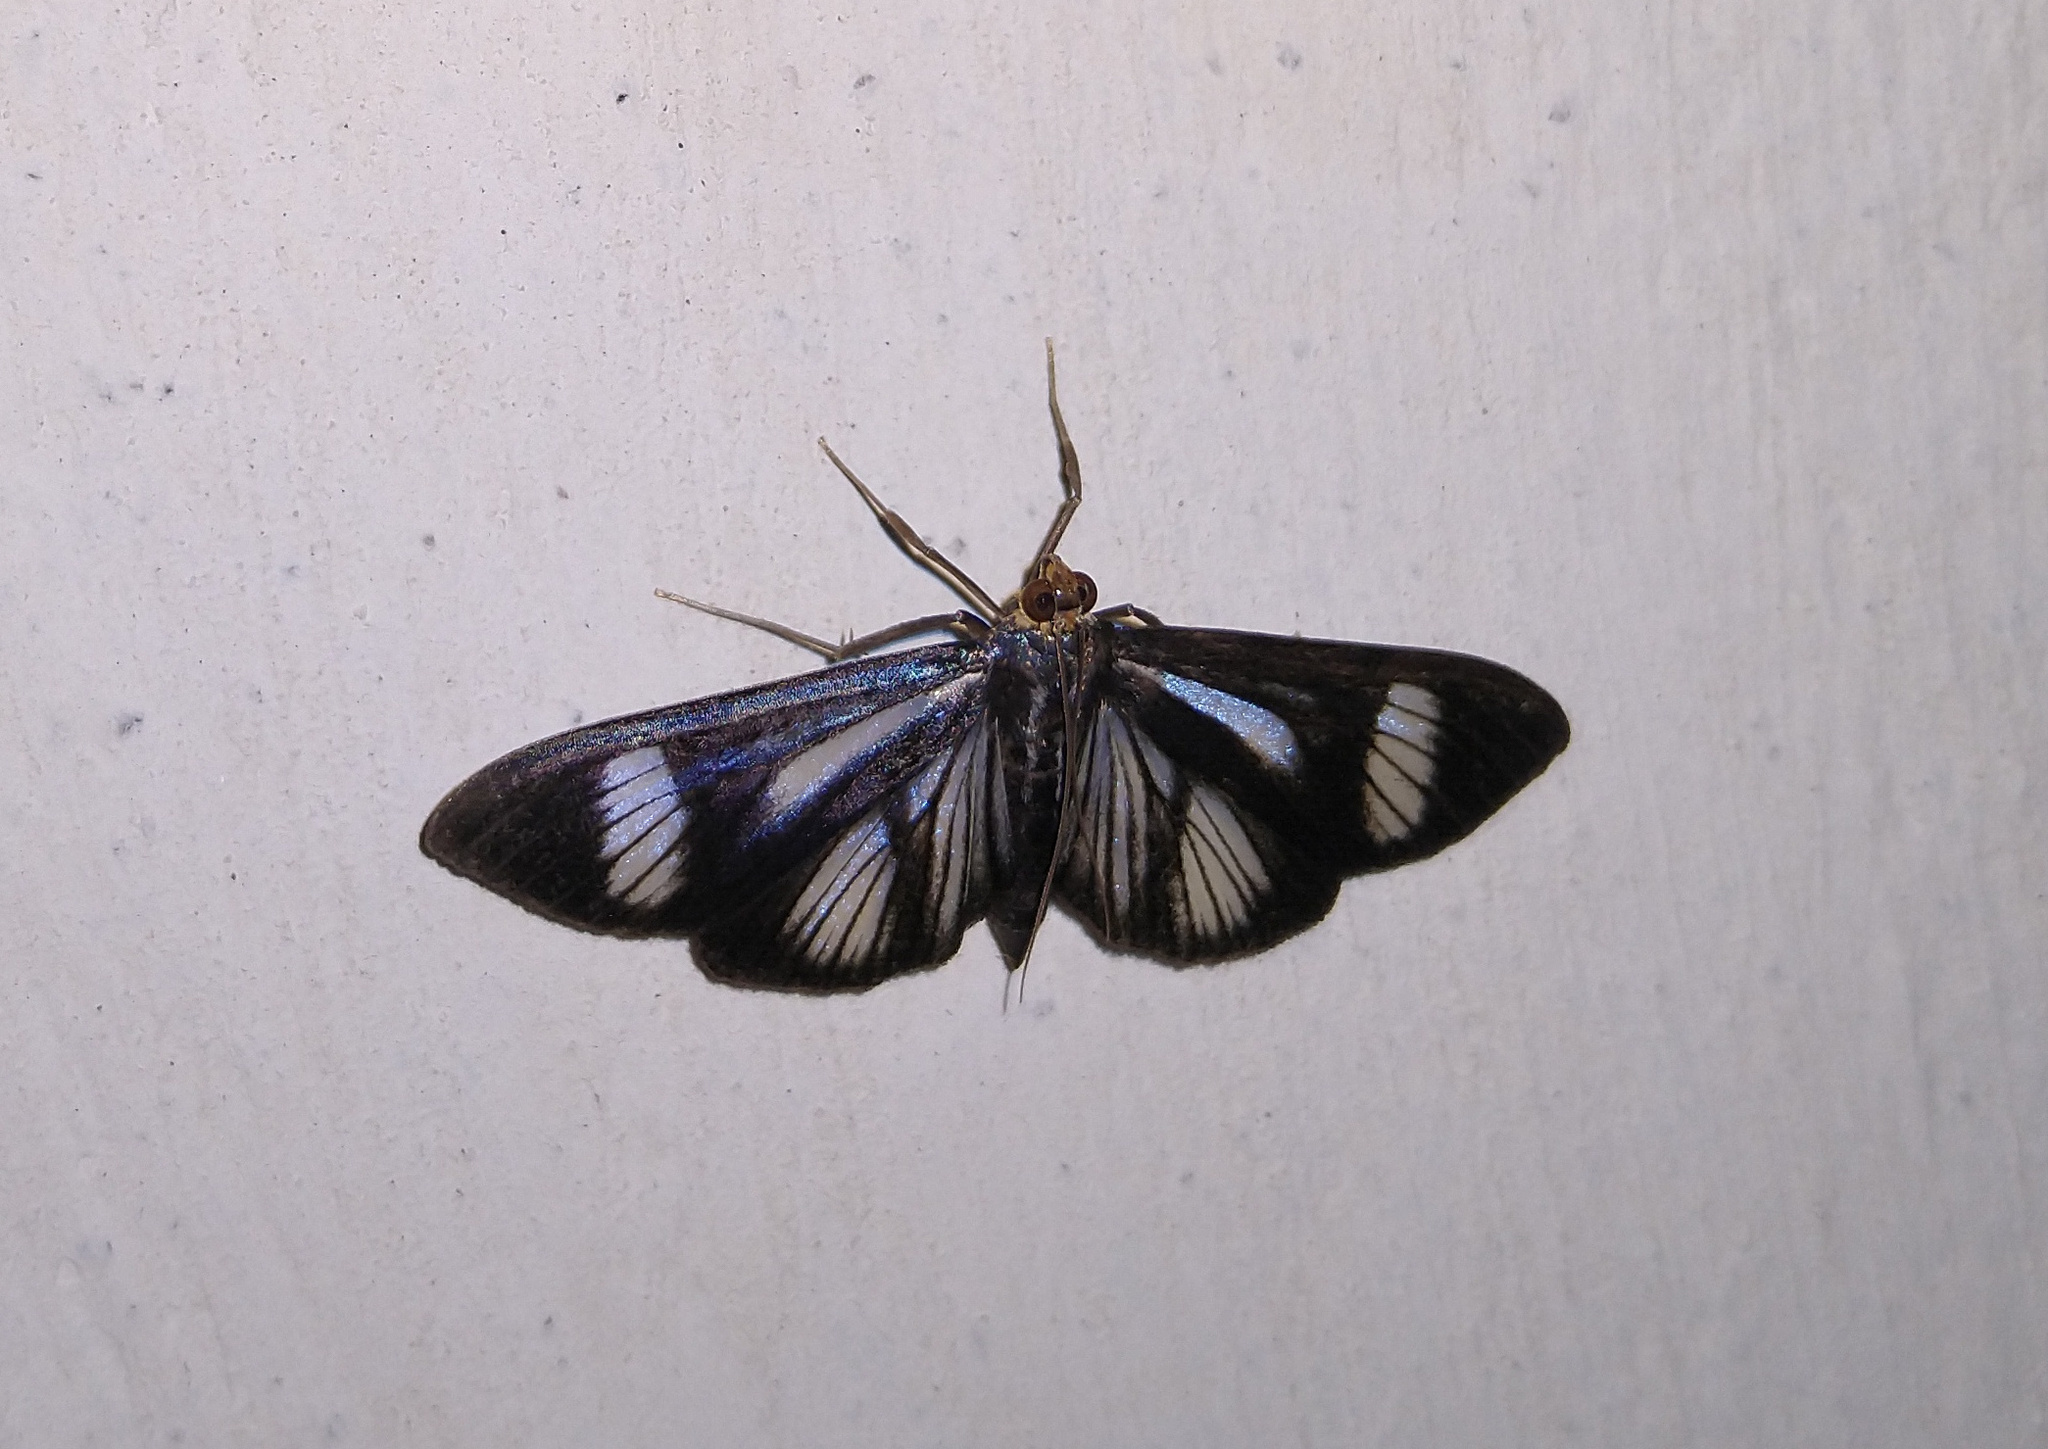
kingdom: Animalia
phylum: Arthropoda
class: Insecta
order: Lepidoptera
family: Crambidae
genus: Phostria
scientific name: Phostria euagra
